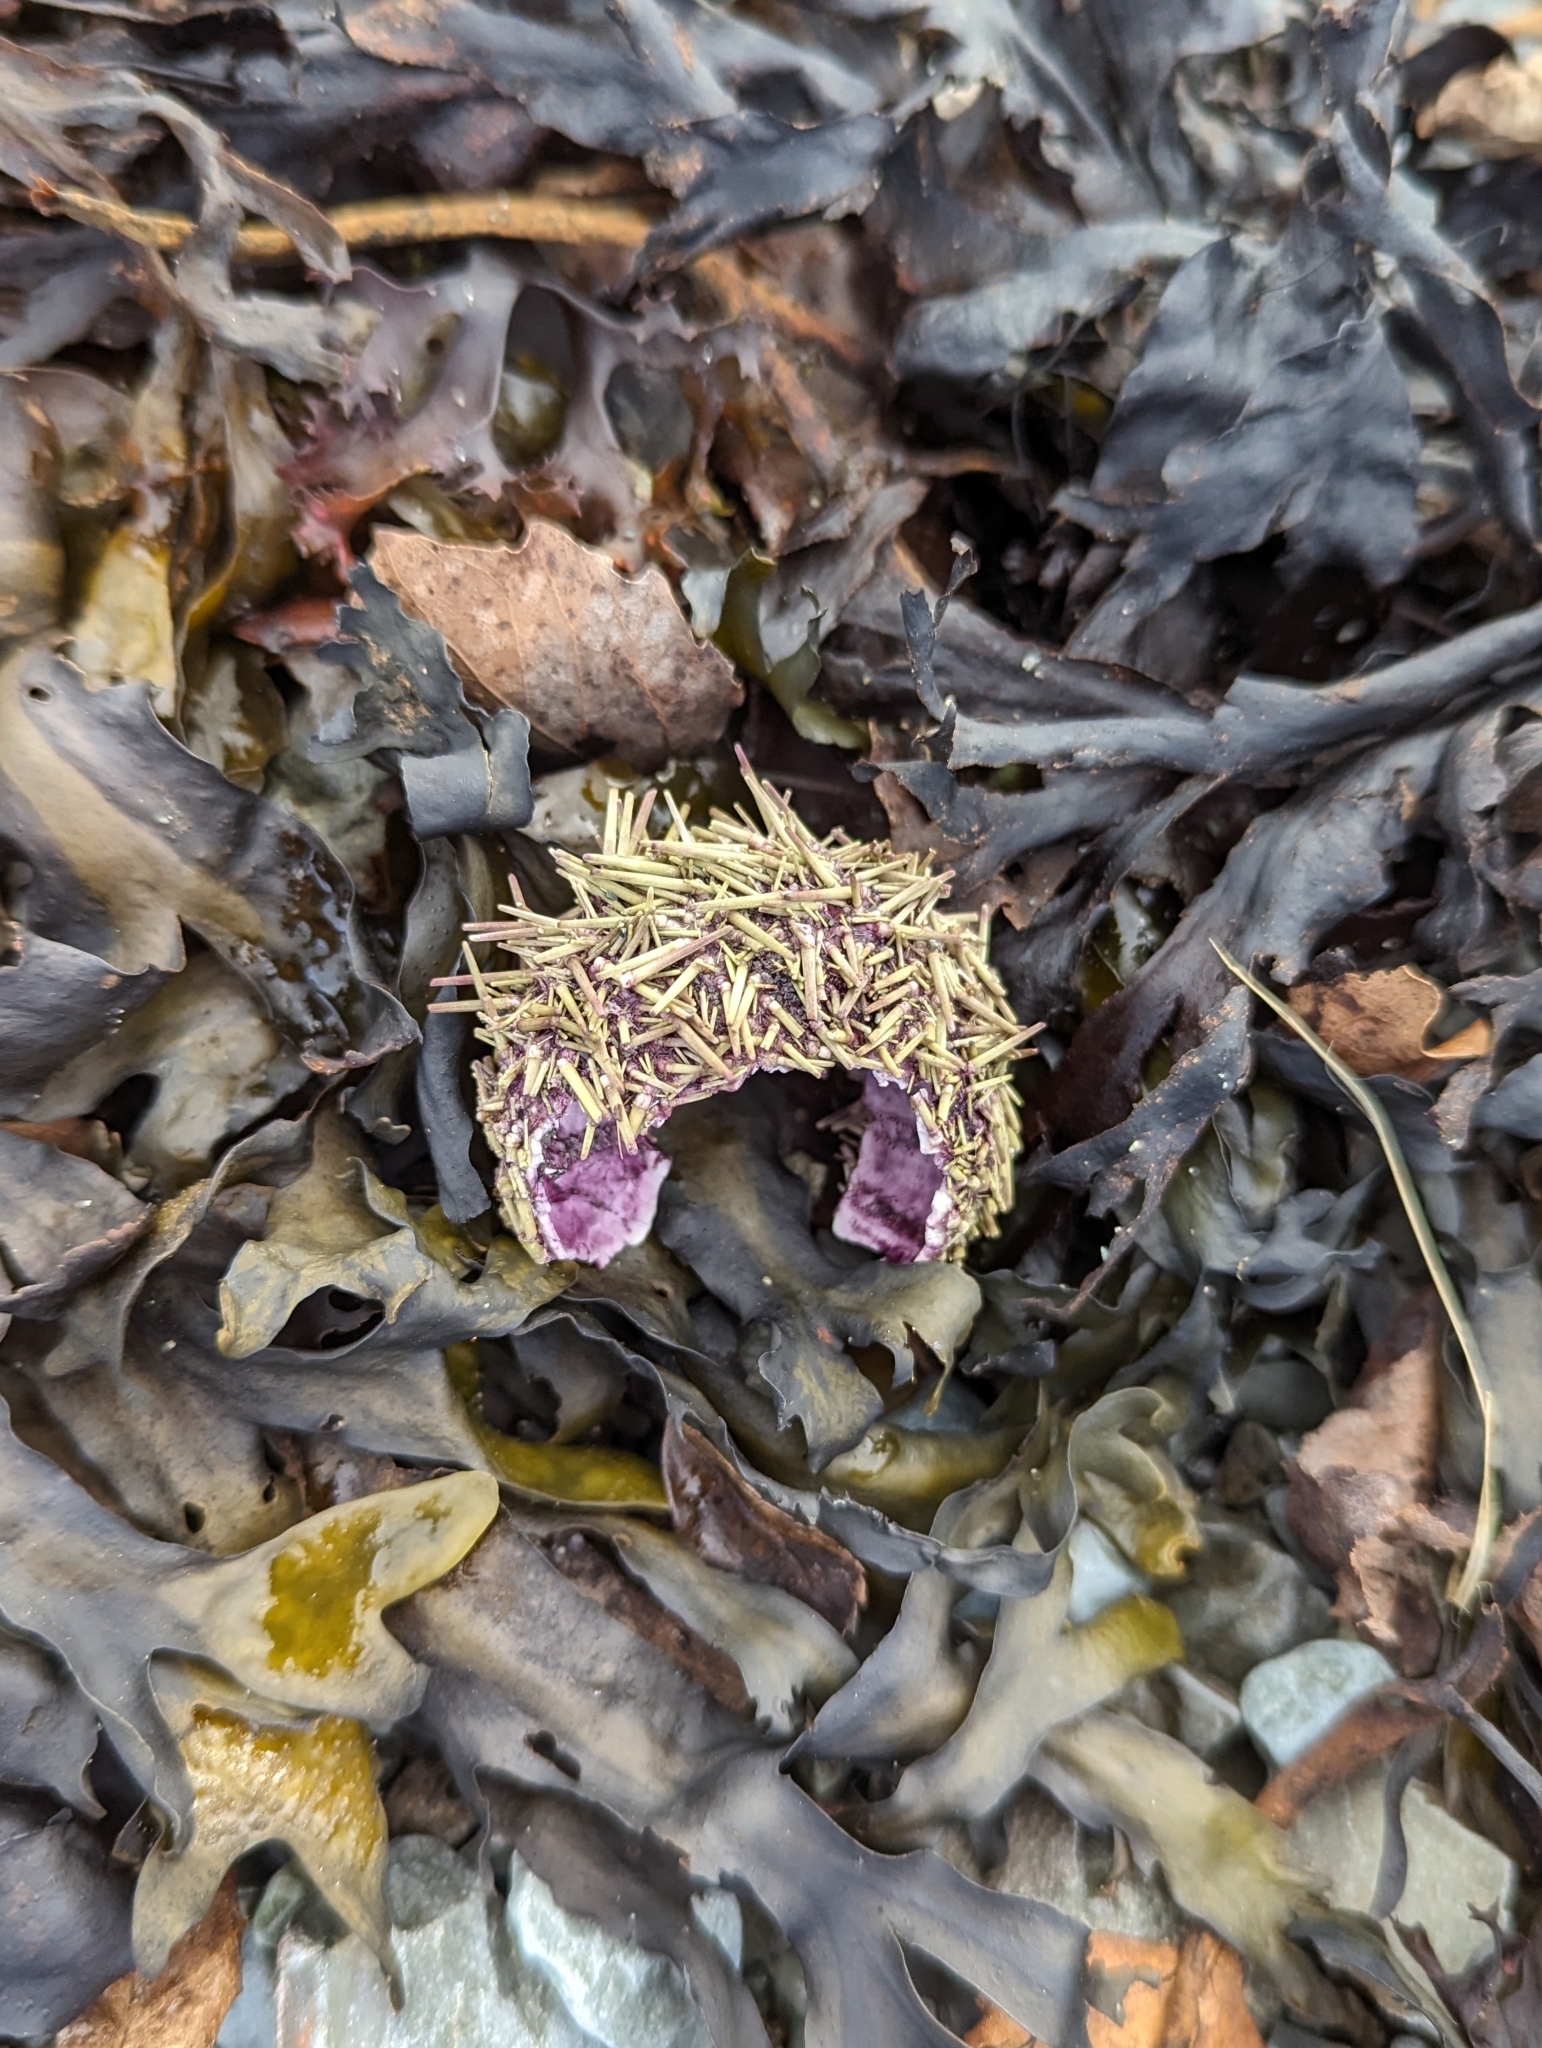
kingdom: Animalia
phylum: Echinodermata
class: Echinoidea
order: Camarodonta
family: Strongylocentrotidae
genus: Strongylocentrotus
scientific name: Strongylocentrotus droebachiensis
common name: Northern sea urchin
